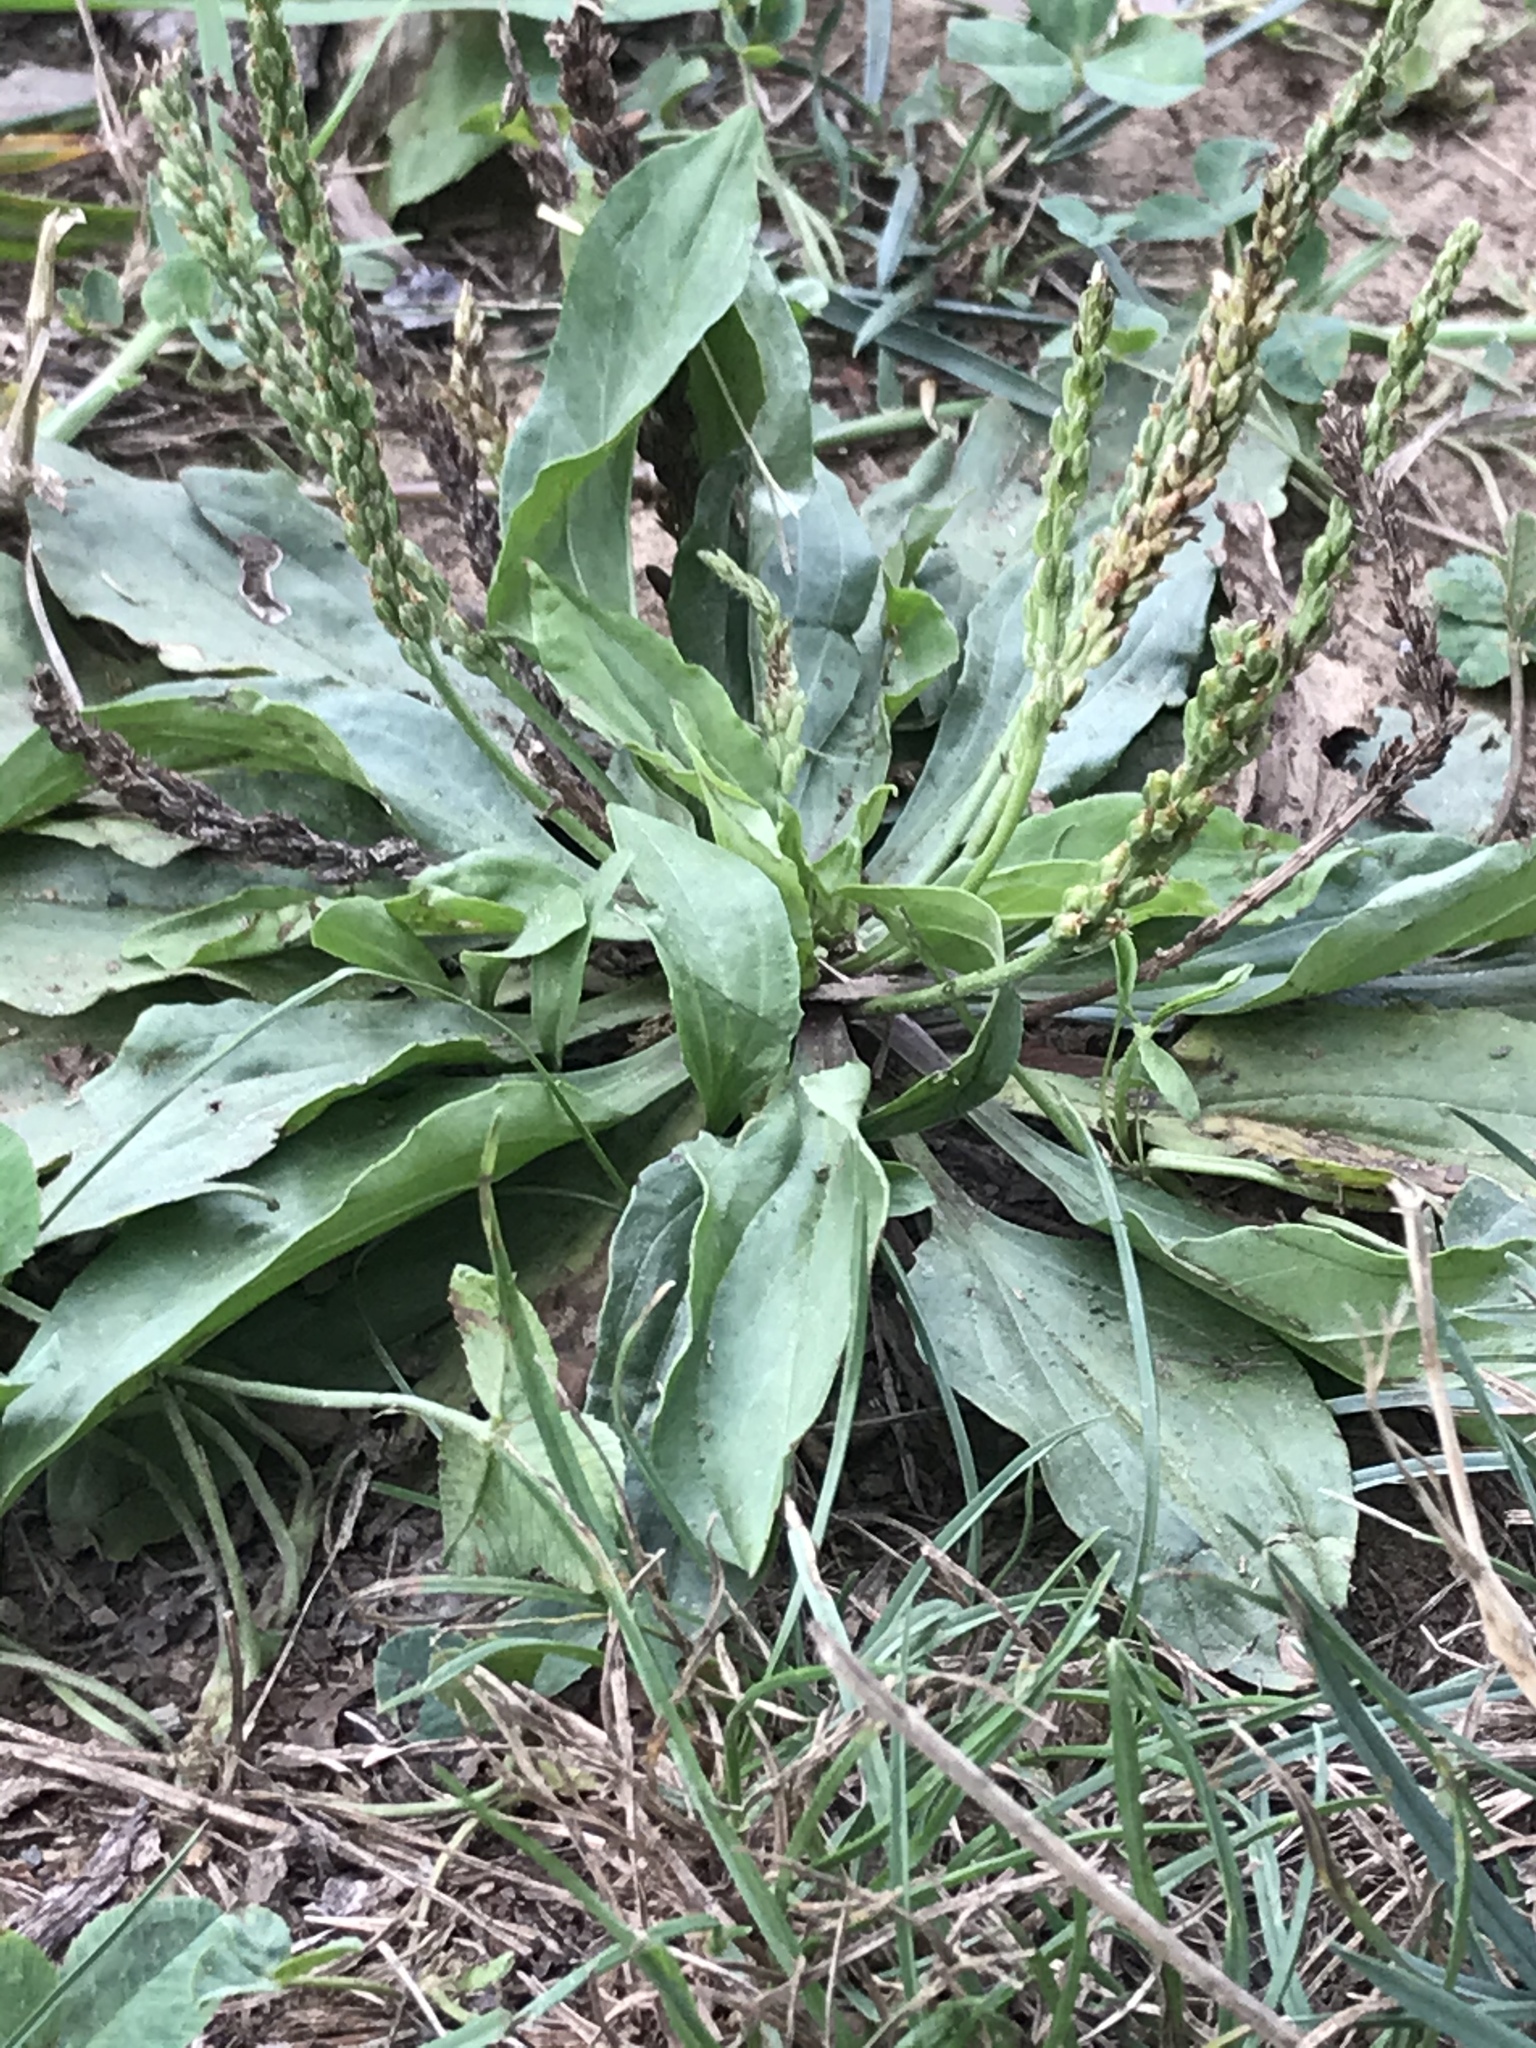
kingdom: Plantae
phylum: Tracheophyta
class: Magnoliopsida
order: Lamiales
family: Plantaginaceae
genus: Plantago
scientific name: Plantago rugelii
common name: American plantain
